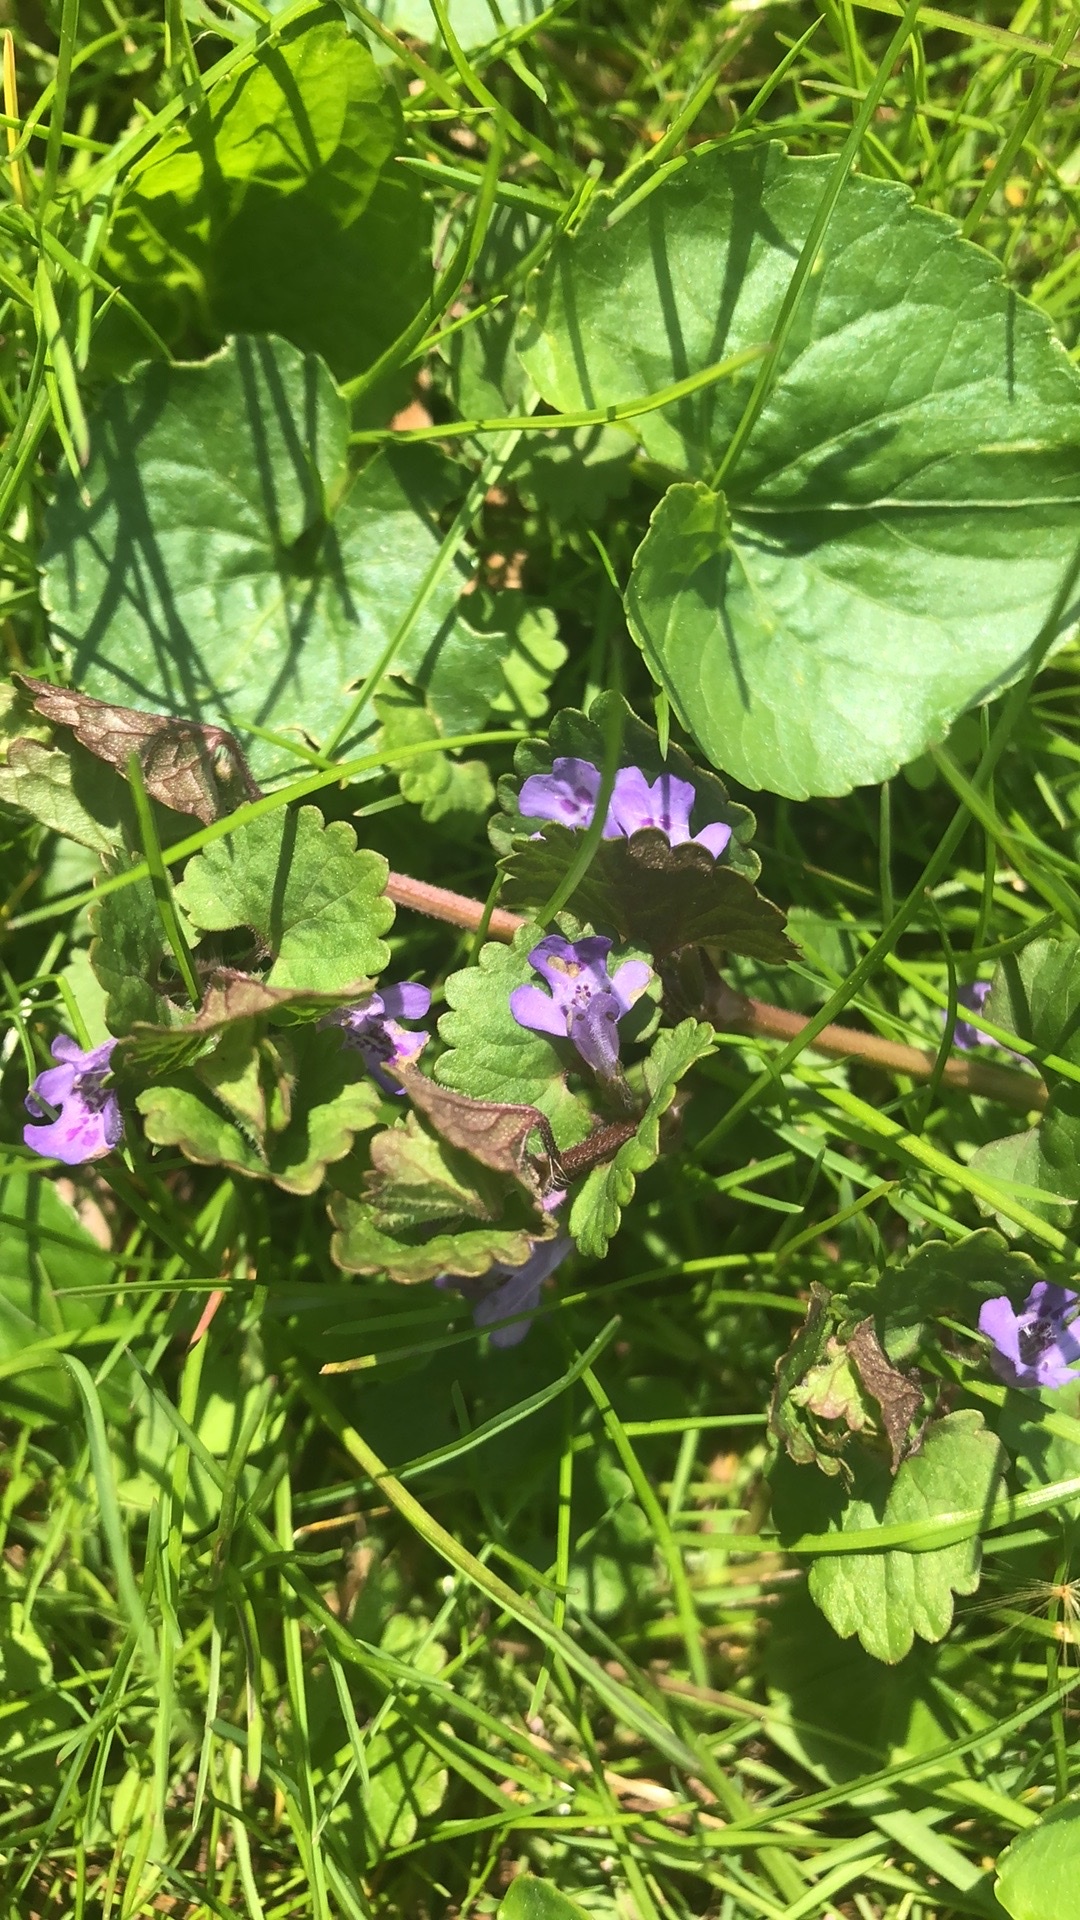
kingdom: Plantae
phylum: Tracheophyta
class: Magnoliopsida
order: Lamiales
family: Lamiaceae
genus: Glechoma
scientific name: Glechoma hederacea
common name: Ground ivy
